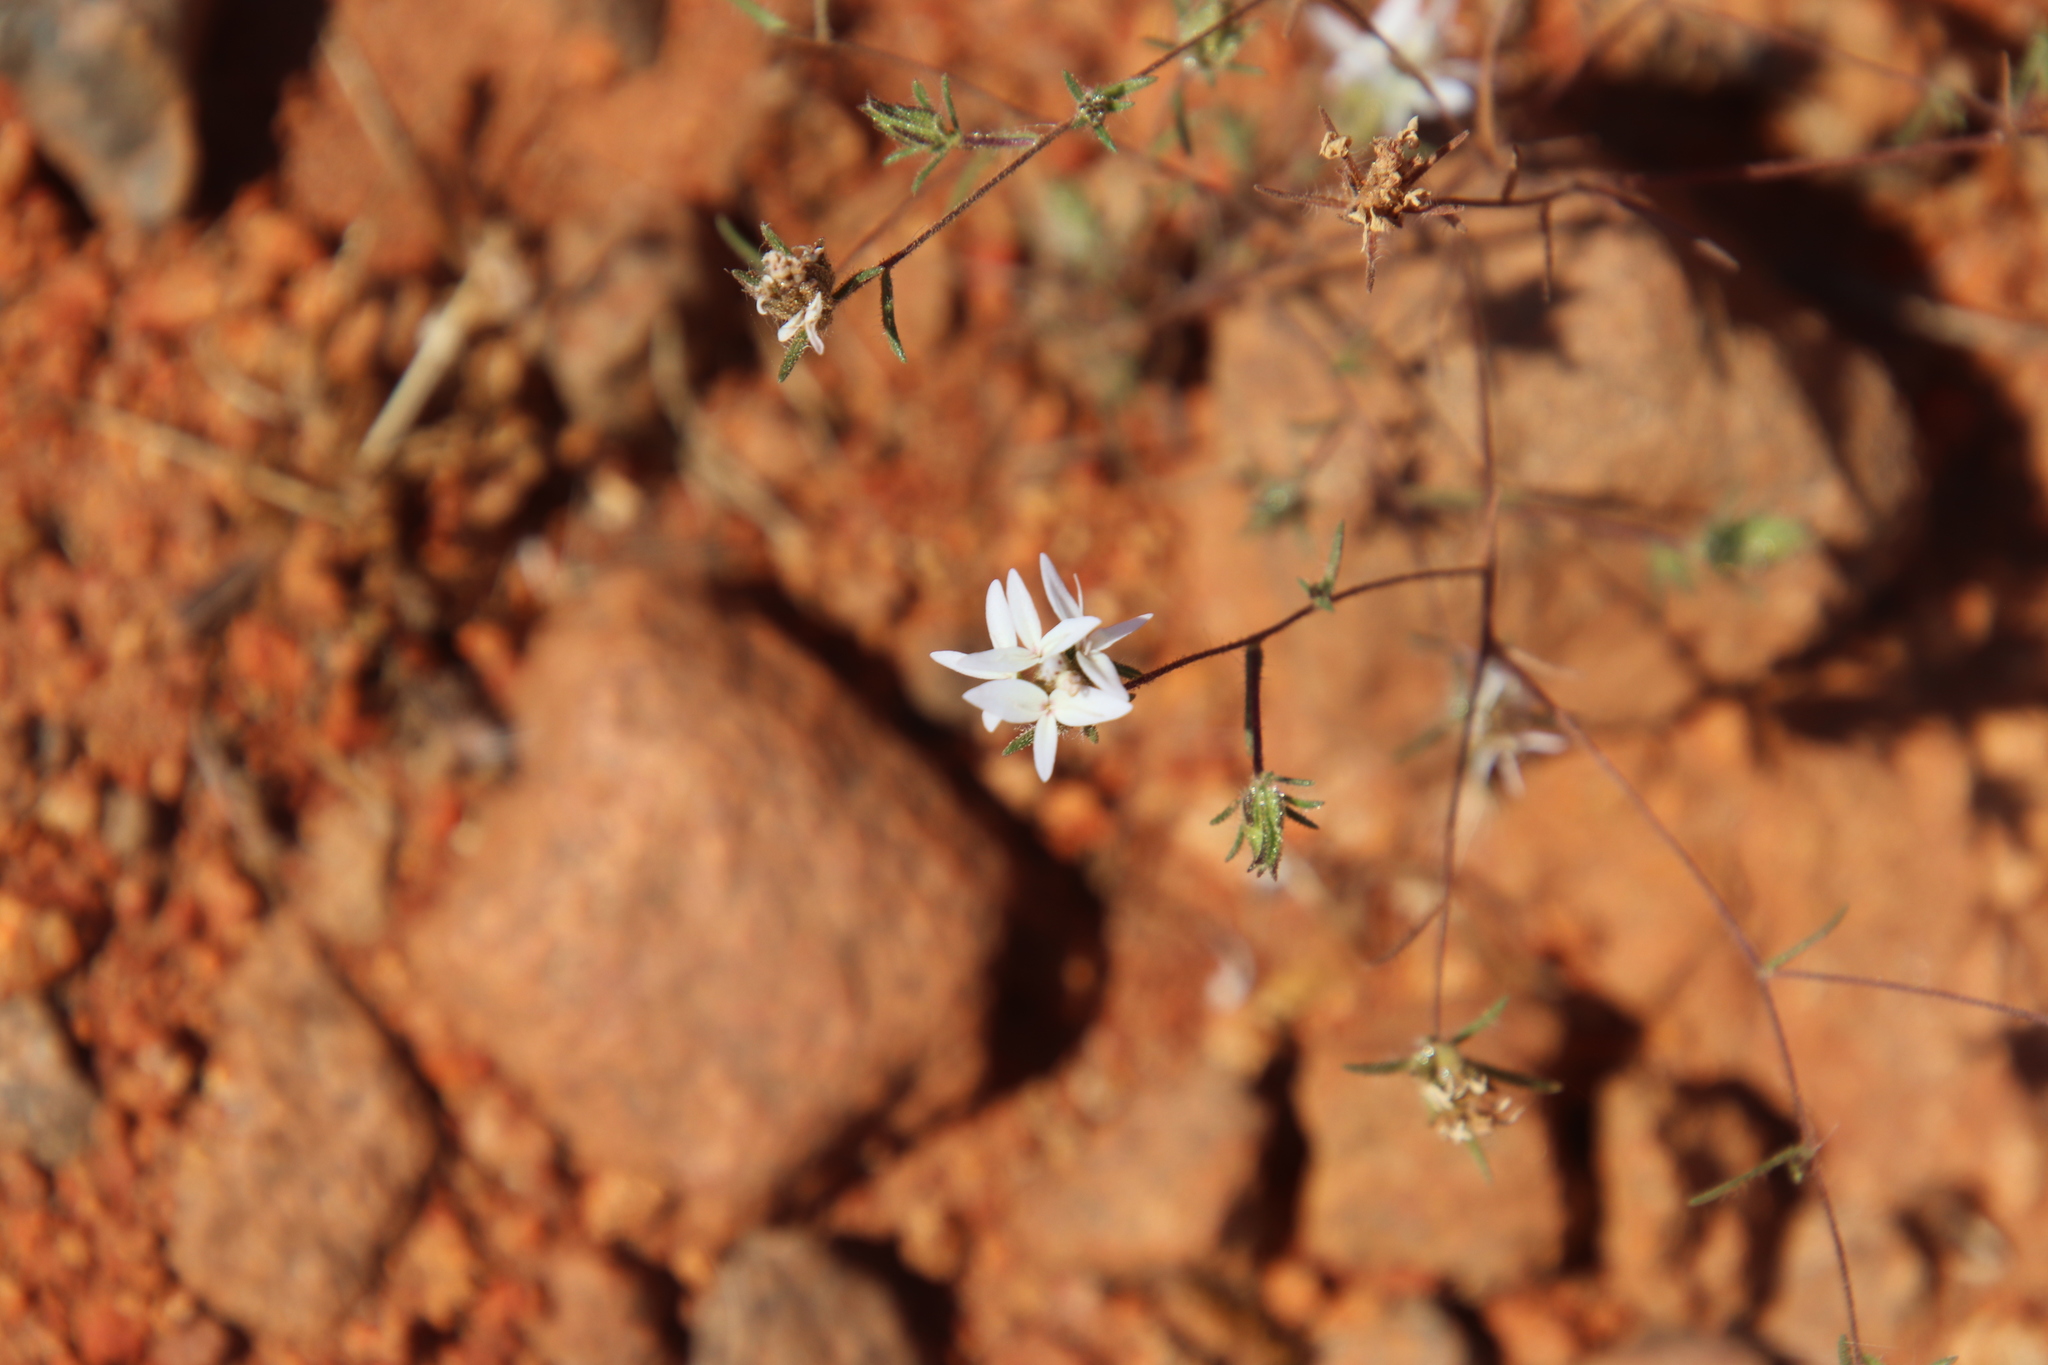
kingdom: Plantae
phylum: Tracheophyta
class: Magnoliopsida
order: Asterales
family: Asteraceae
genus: Osmadenia
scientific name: Osmadenia tenella
